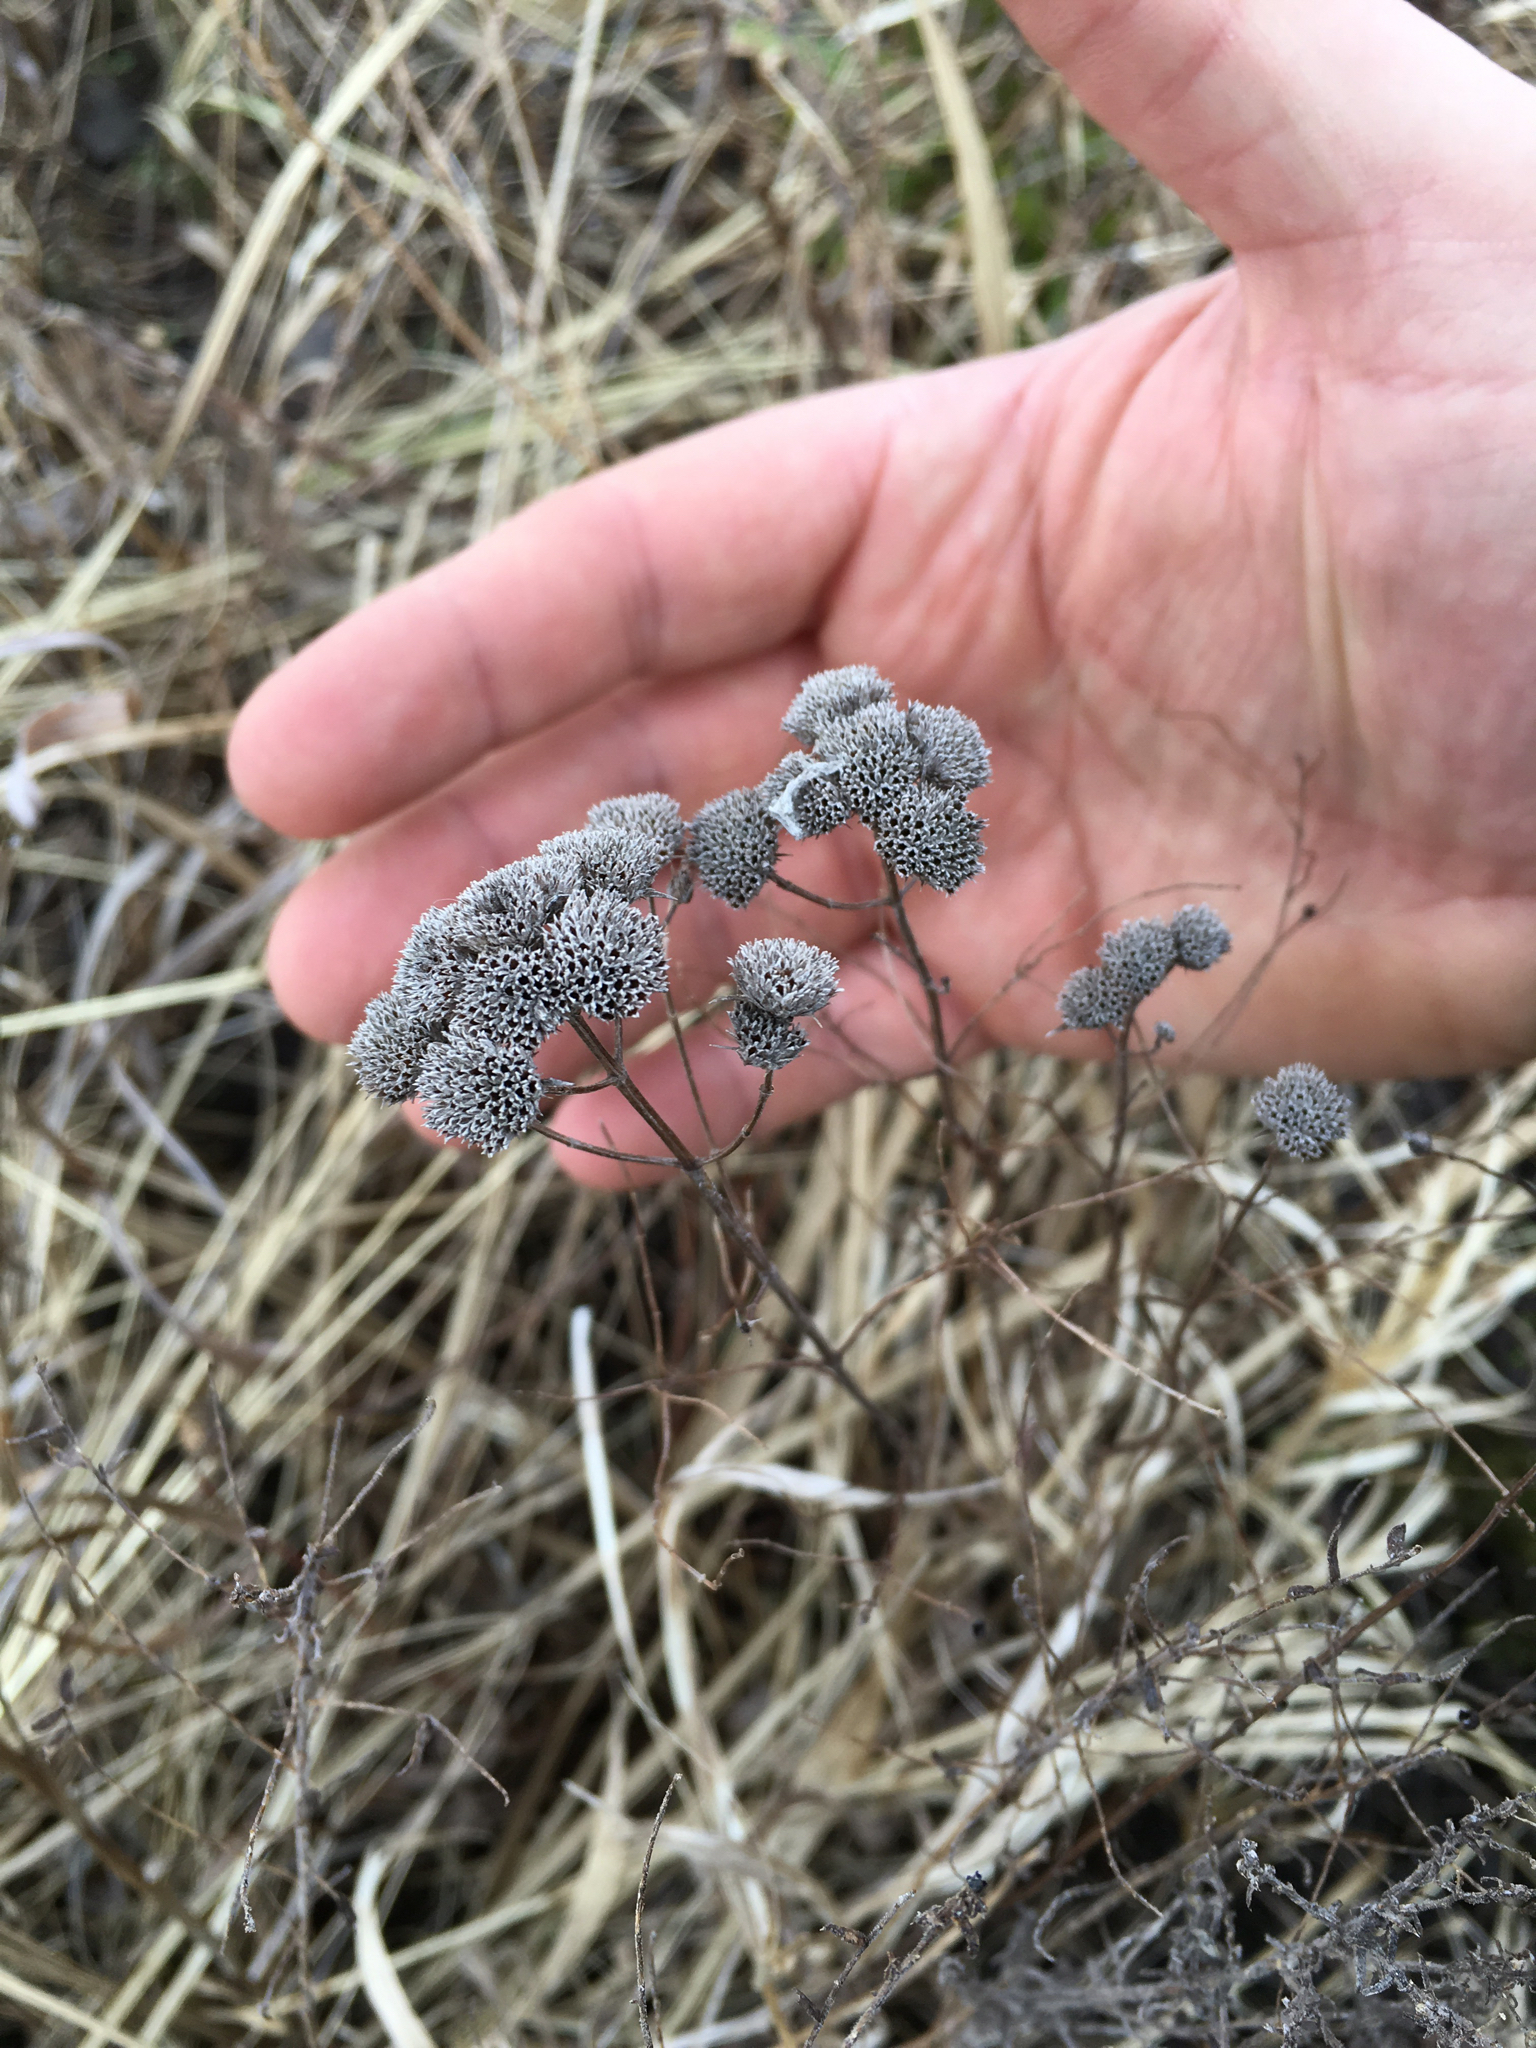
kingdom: Plantae
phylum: Tracheophyta
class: Magnoliopsida
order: Lamiales
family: Lamiaceae
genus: Pycnanthemum
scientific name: Pycnanthemum tenuifolium
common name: Narrow-leaf mountain-mint
